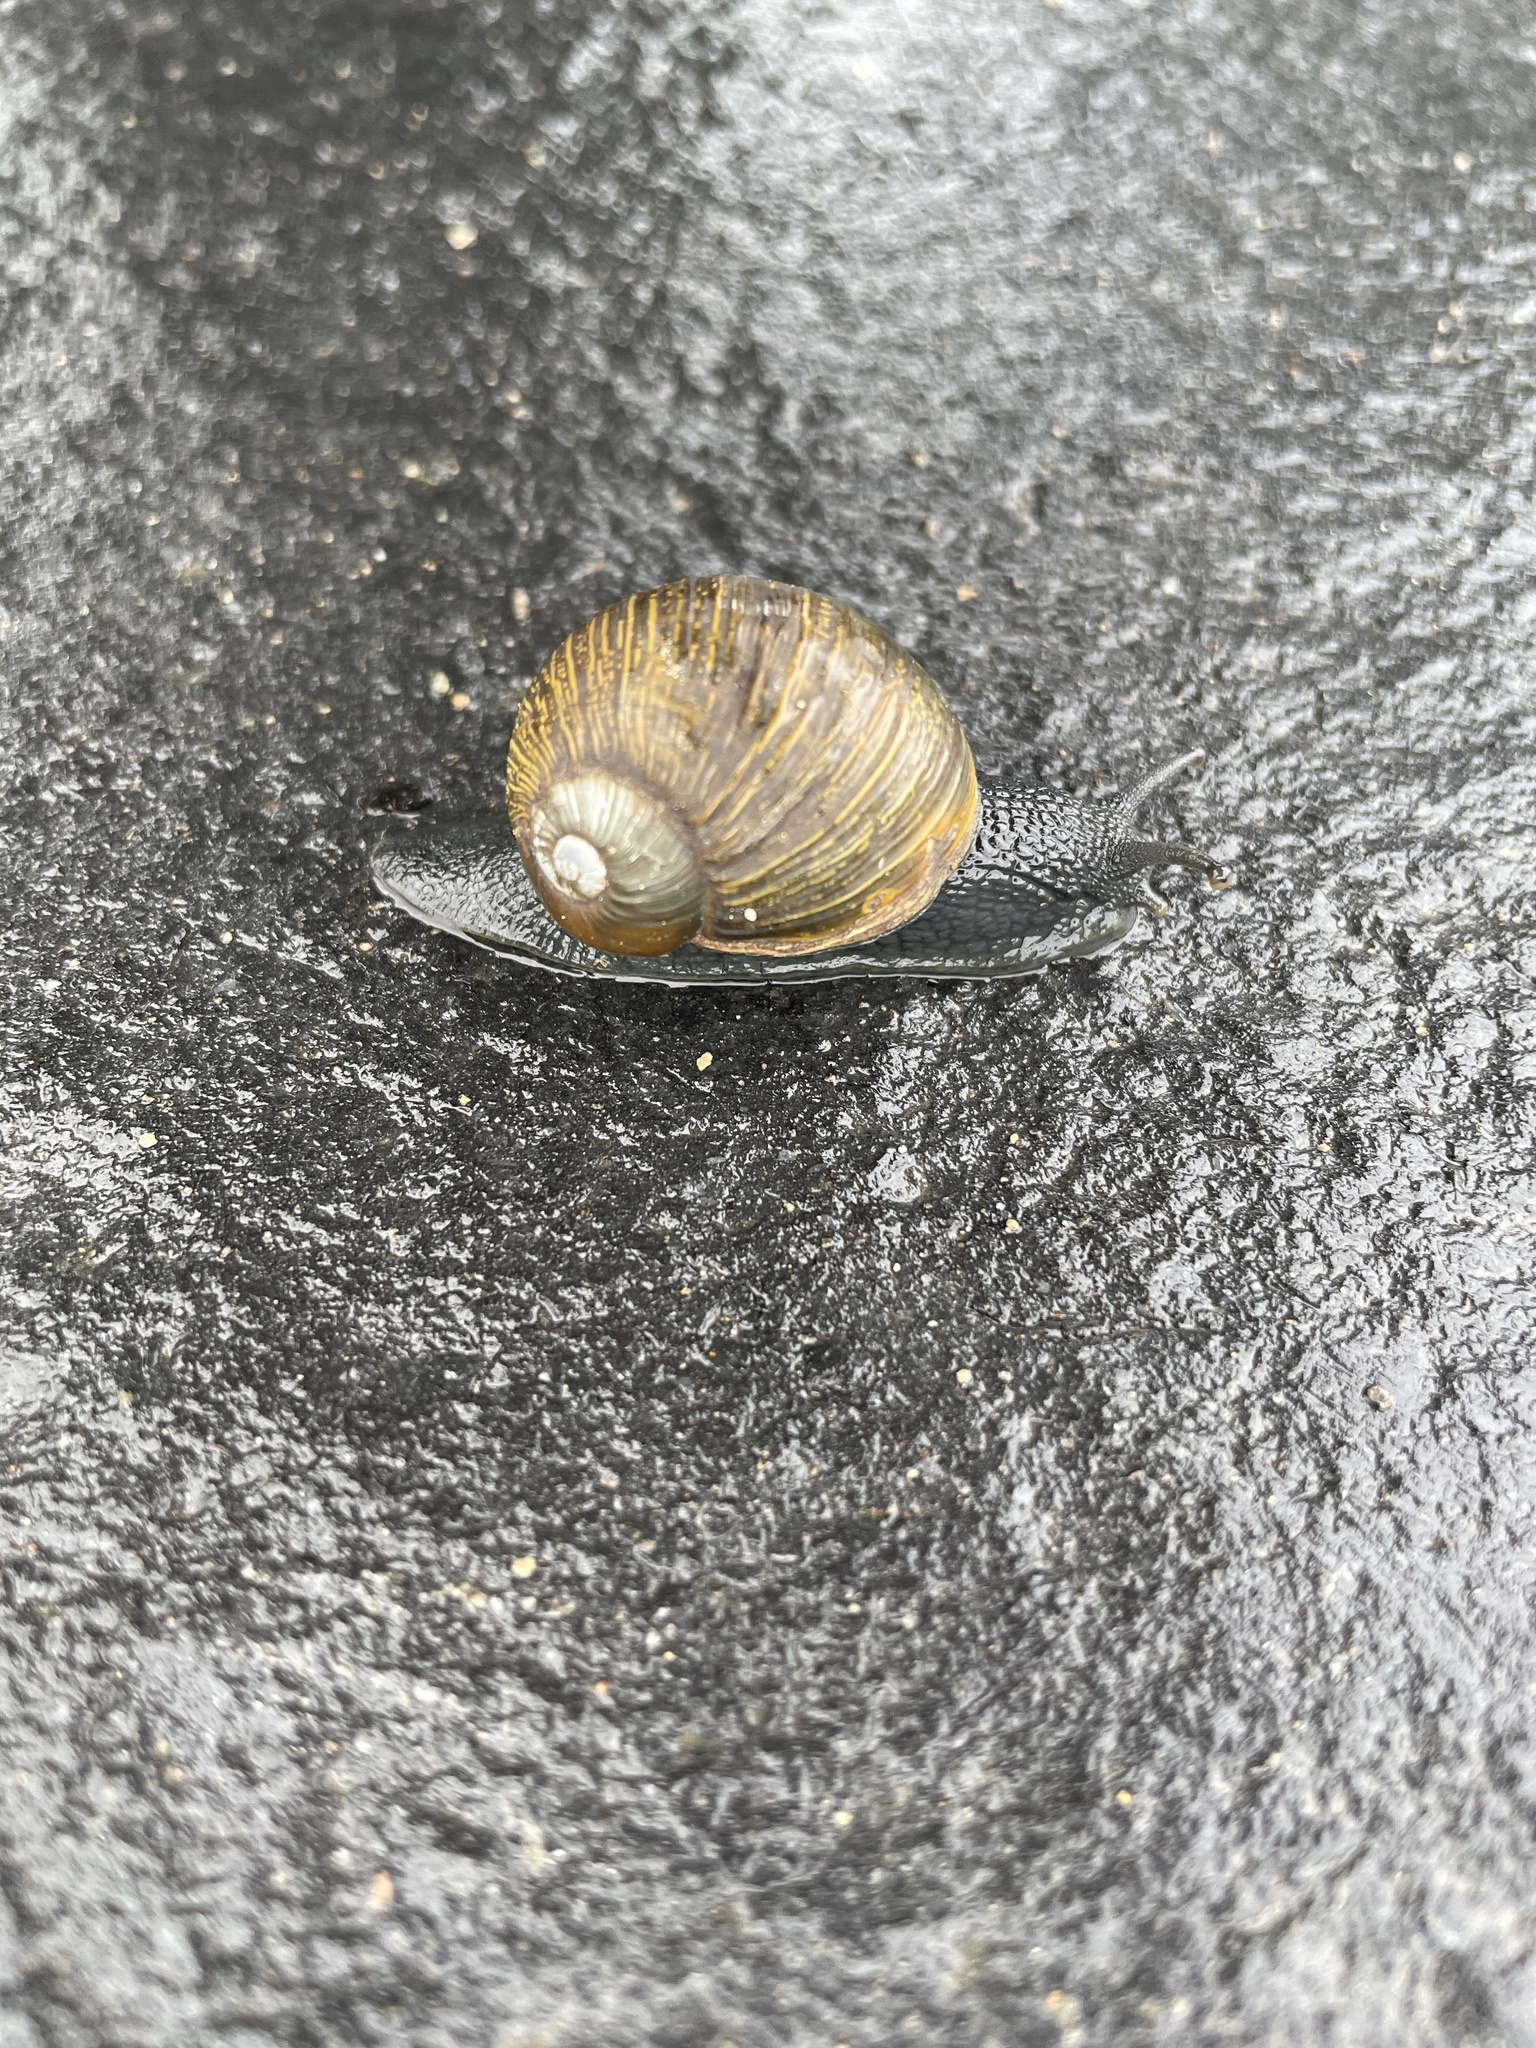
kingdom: Animalia
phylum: Mollusca
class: Gastropoda
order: Stylommatophora
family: Helicidae
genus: Cantareus
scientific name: Cantareus apertus
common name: Green gardensnail
